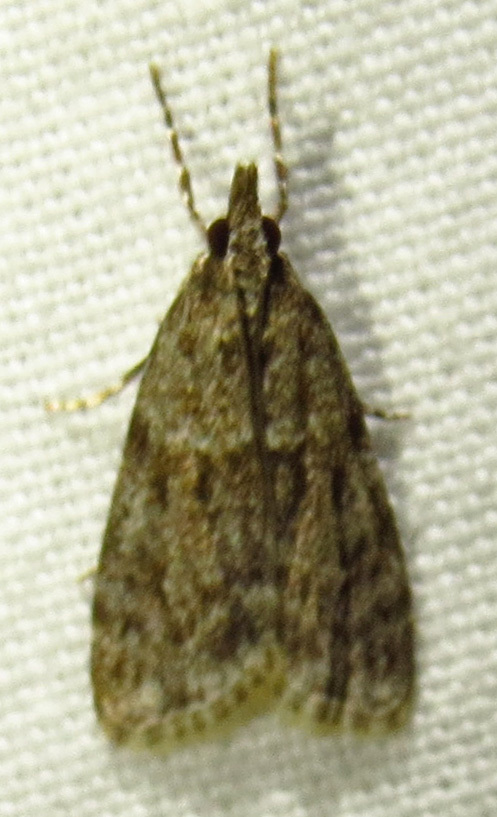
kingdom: Animalia
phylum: Arthropoda
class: Insecta
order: Lepidoptera
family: Crambidae
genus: Eudonia
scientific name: Eudonia heterosalis
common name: Mcdunnough's eudonia
